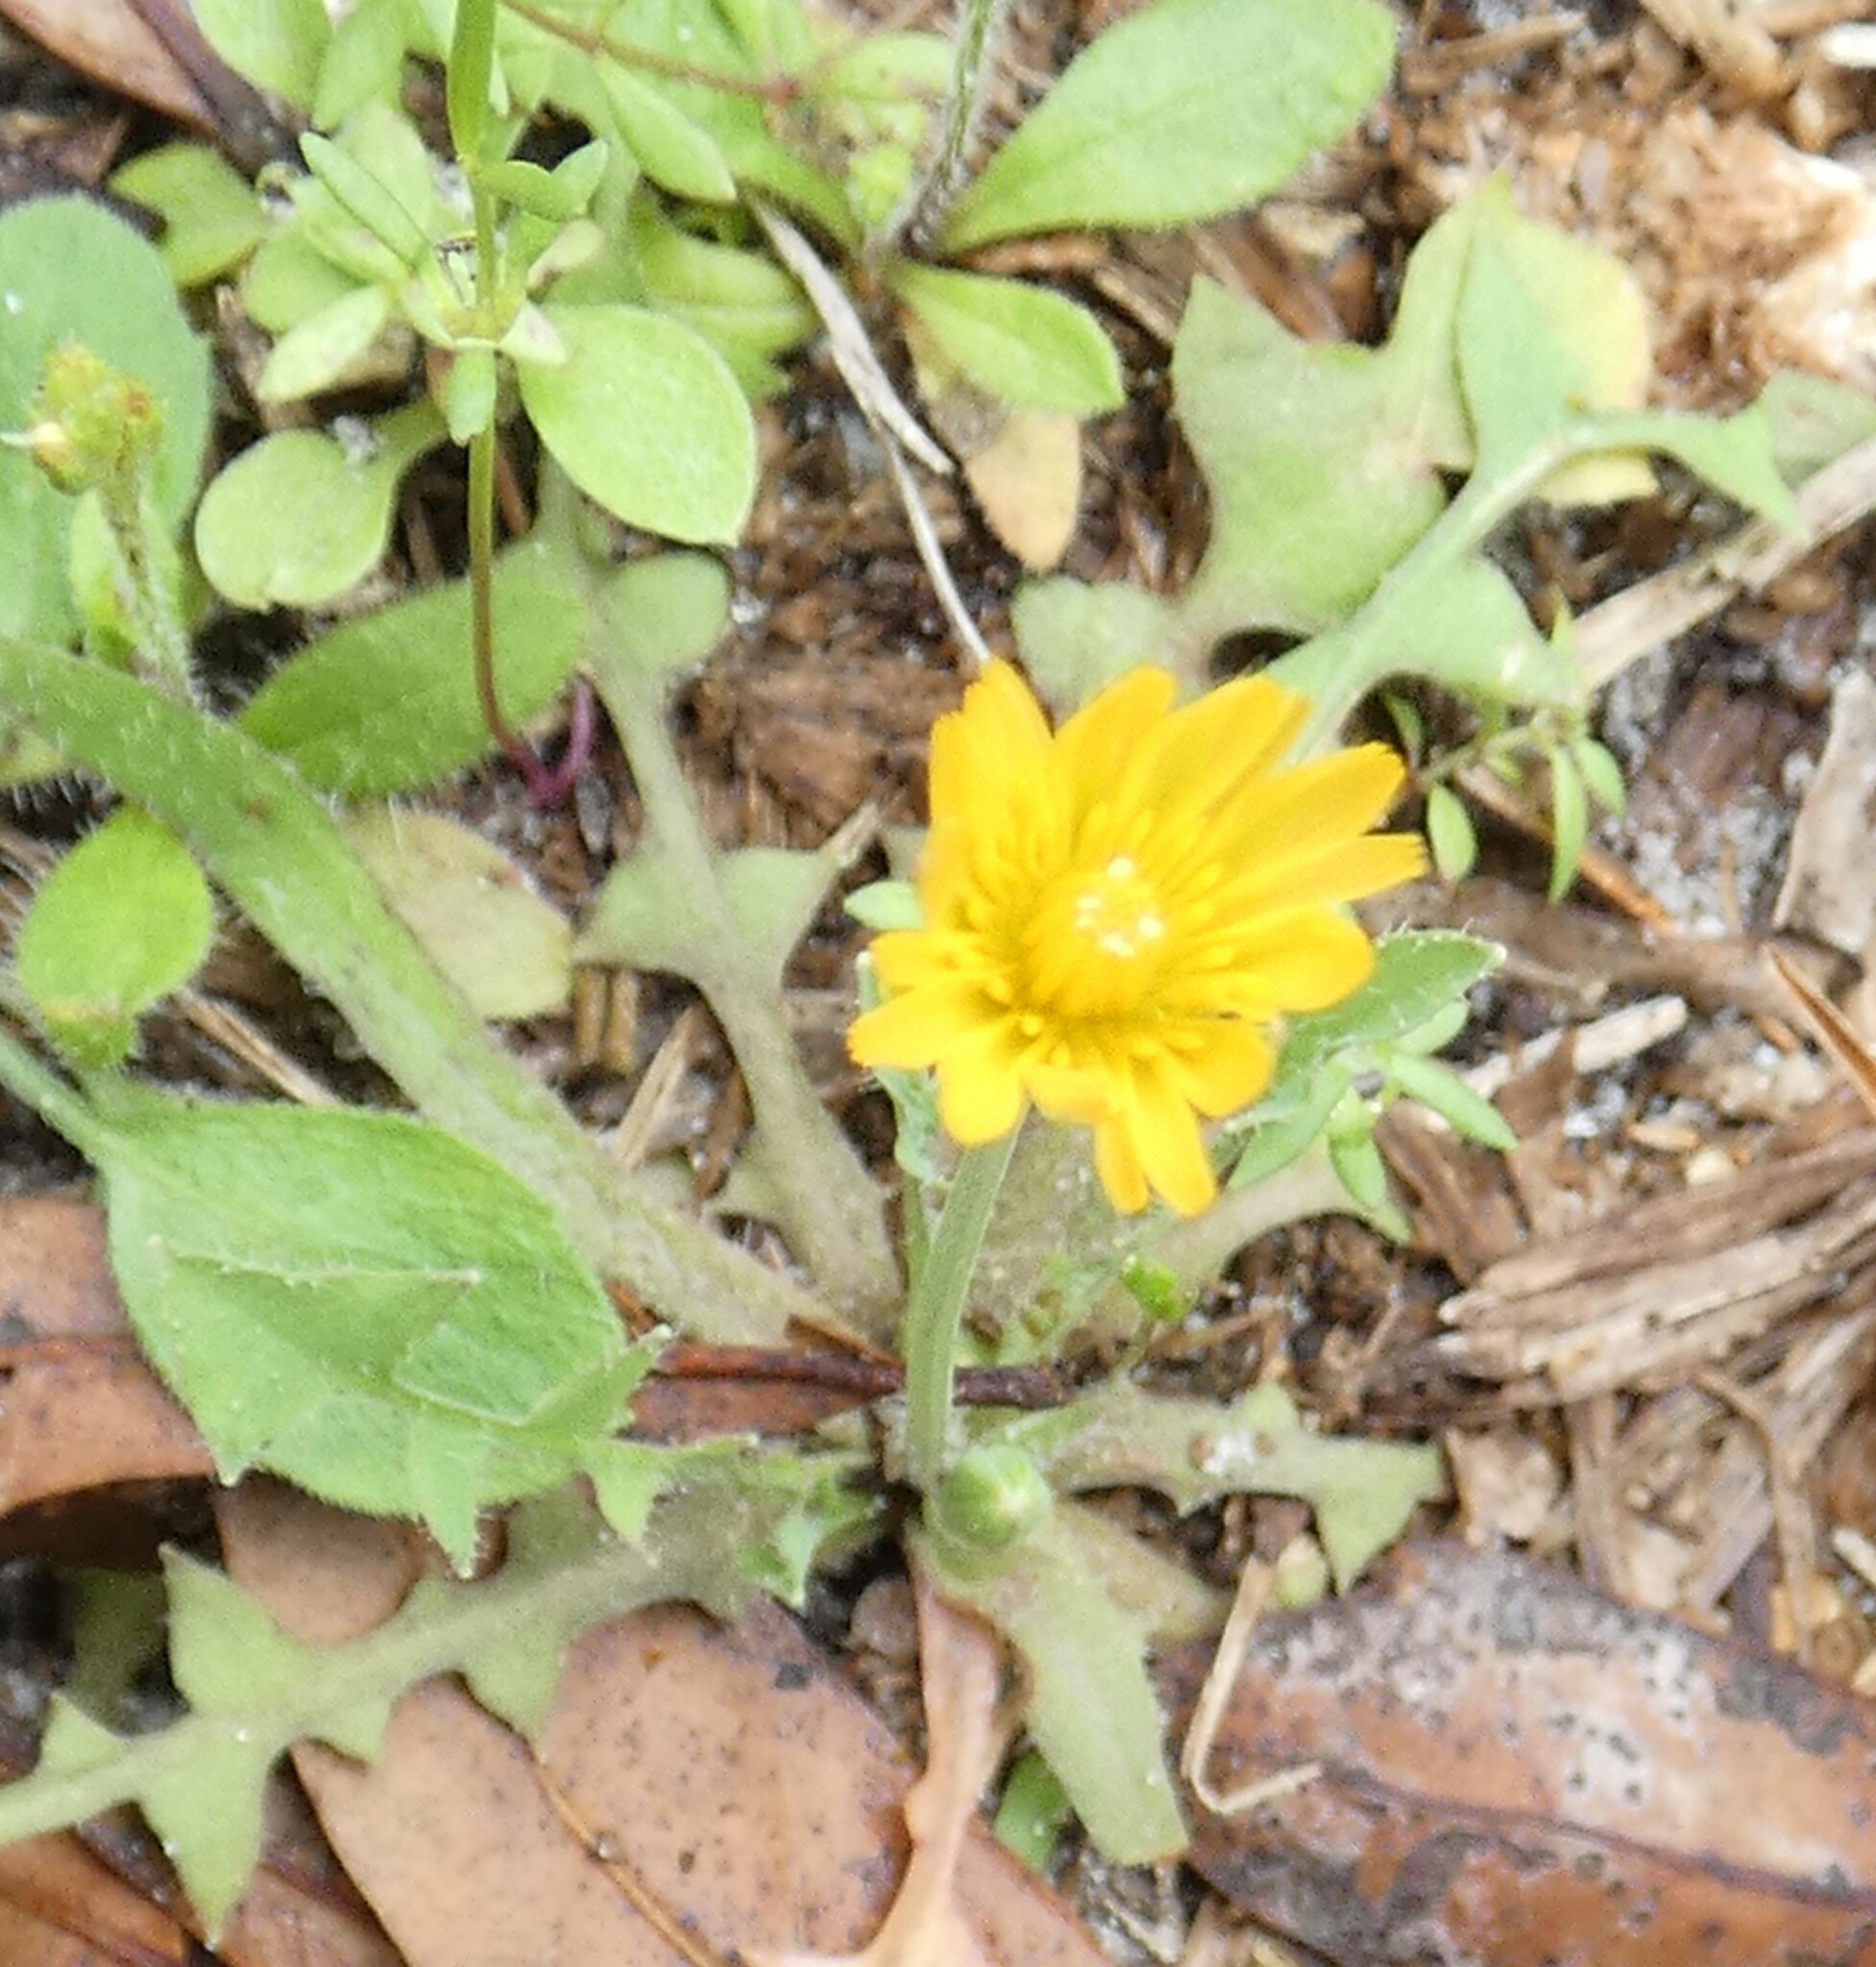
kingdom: Plantae
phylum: Tracheophyta
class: Magnoliopsida
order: Asterales
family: Asteraceae
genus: Krigia
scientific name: Krigia virginica
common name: Virginia dwarf-dandelion
